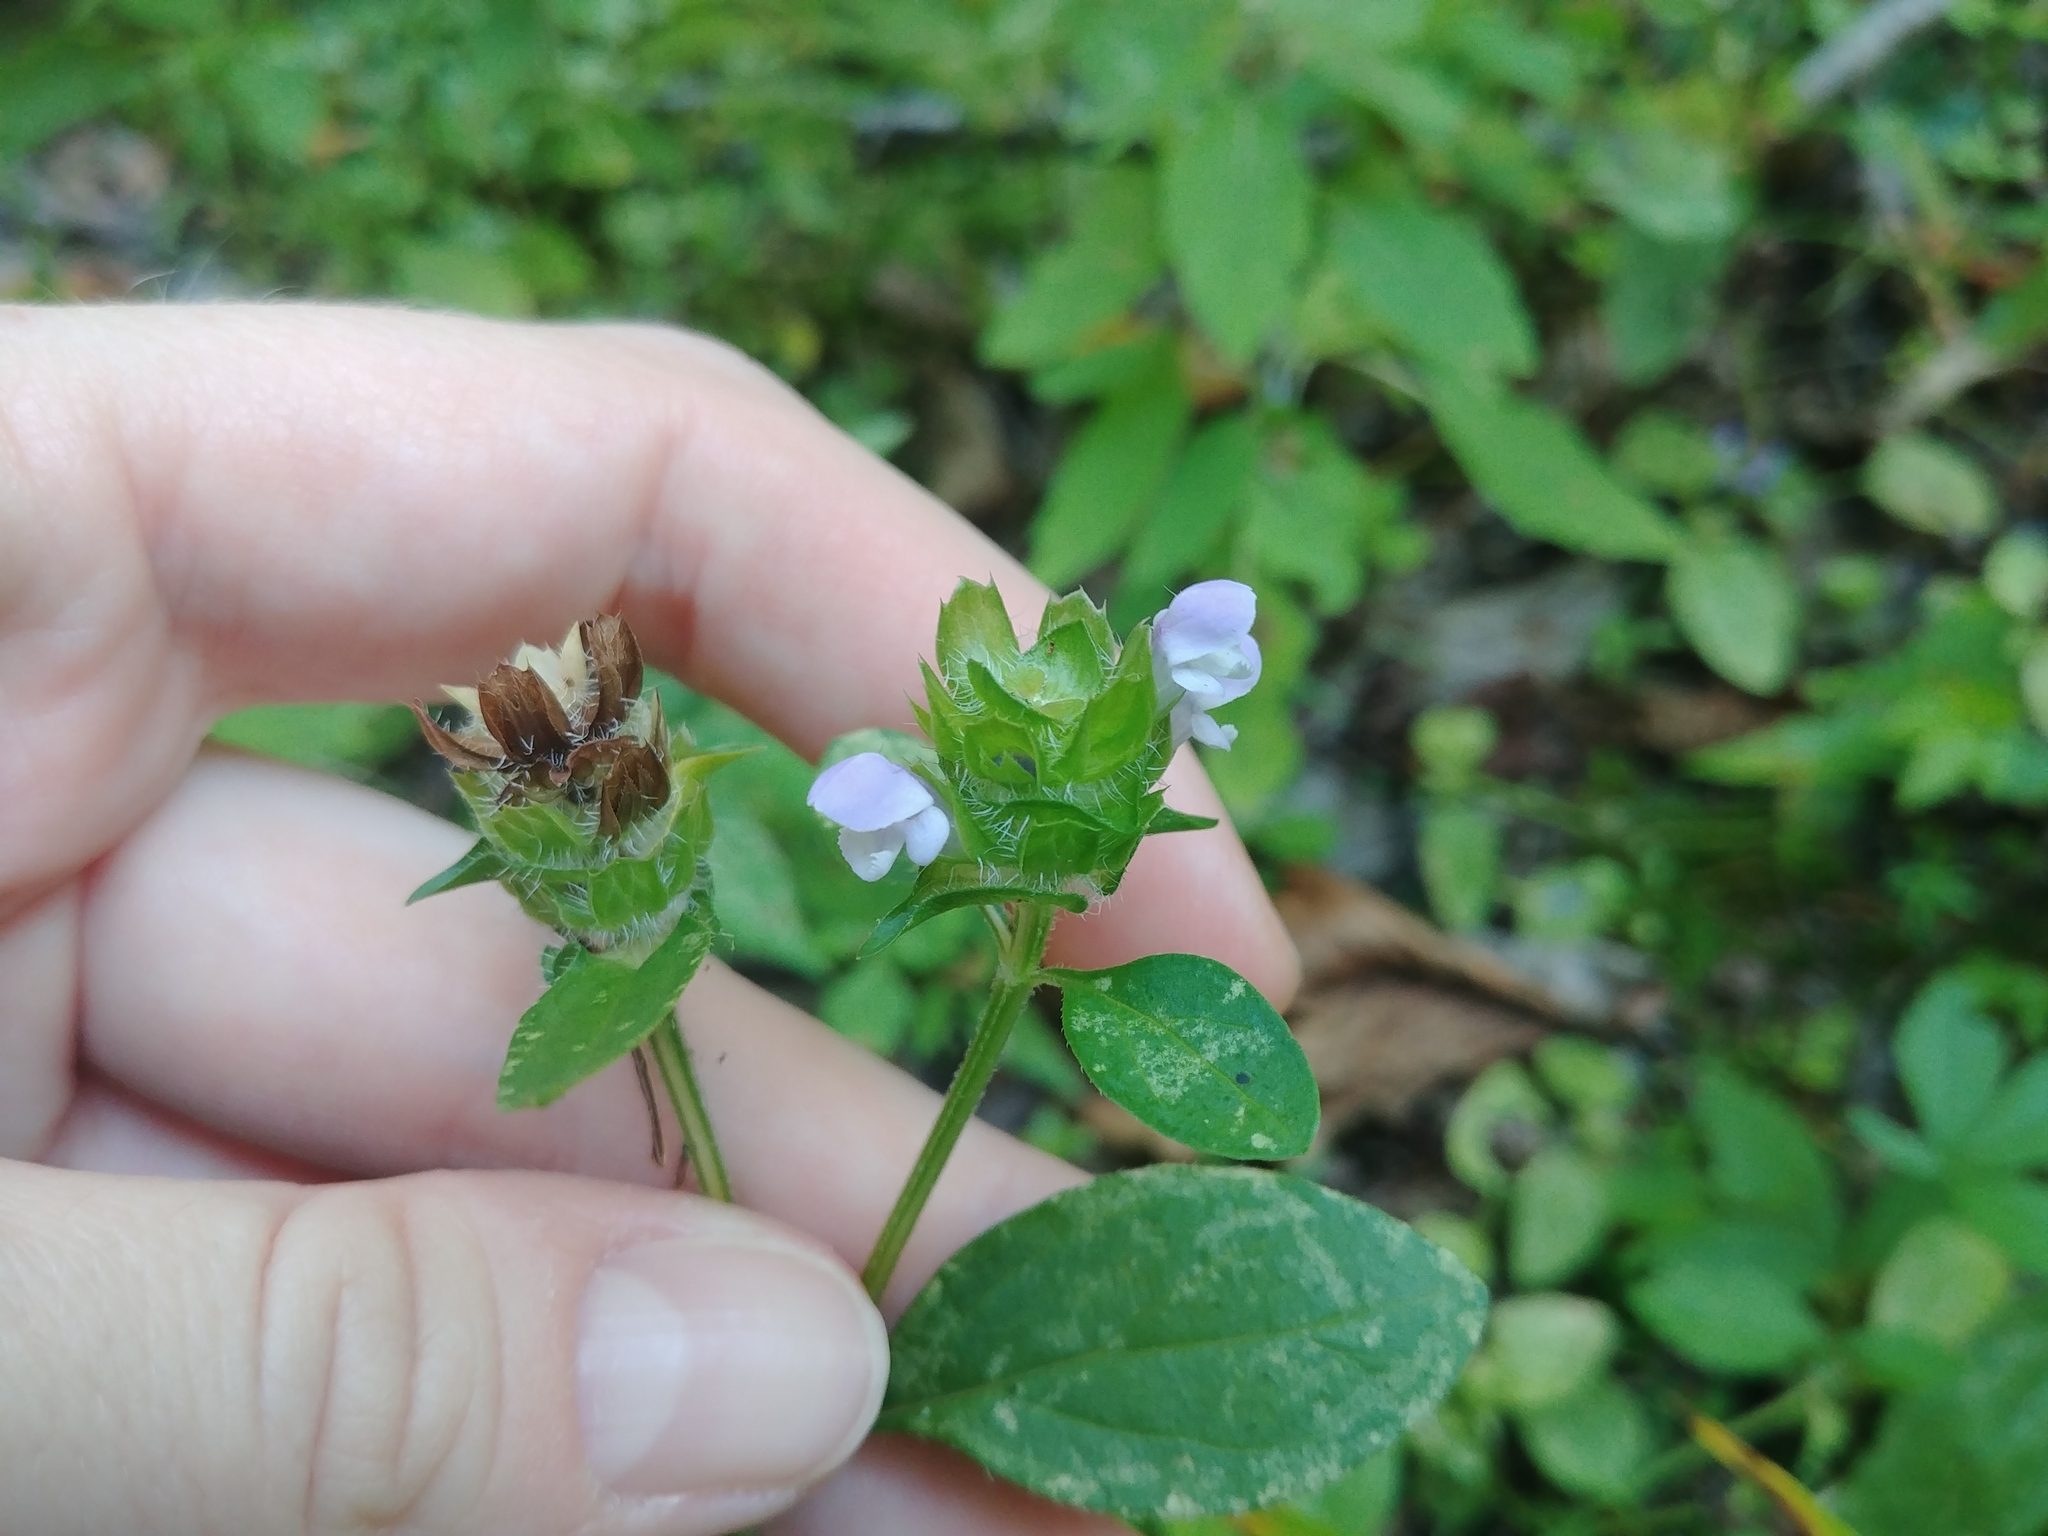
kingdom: Plantae
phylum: Tracheophyta
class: Magnoliopsida
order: Lamiales
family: Lamiaceae
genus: Prunella
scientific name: Prunella vulgaris
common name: Heal-all
